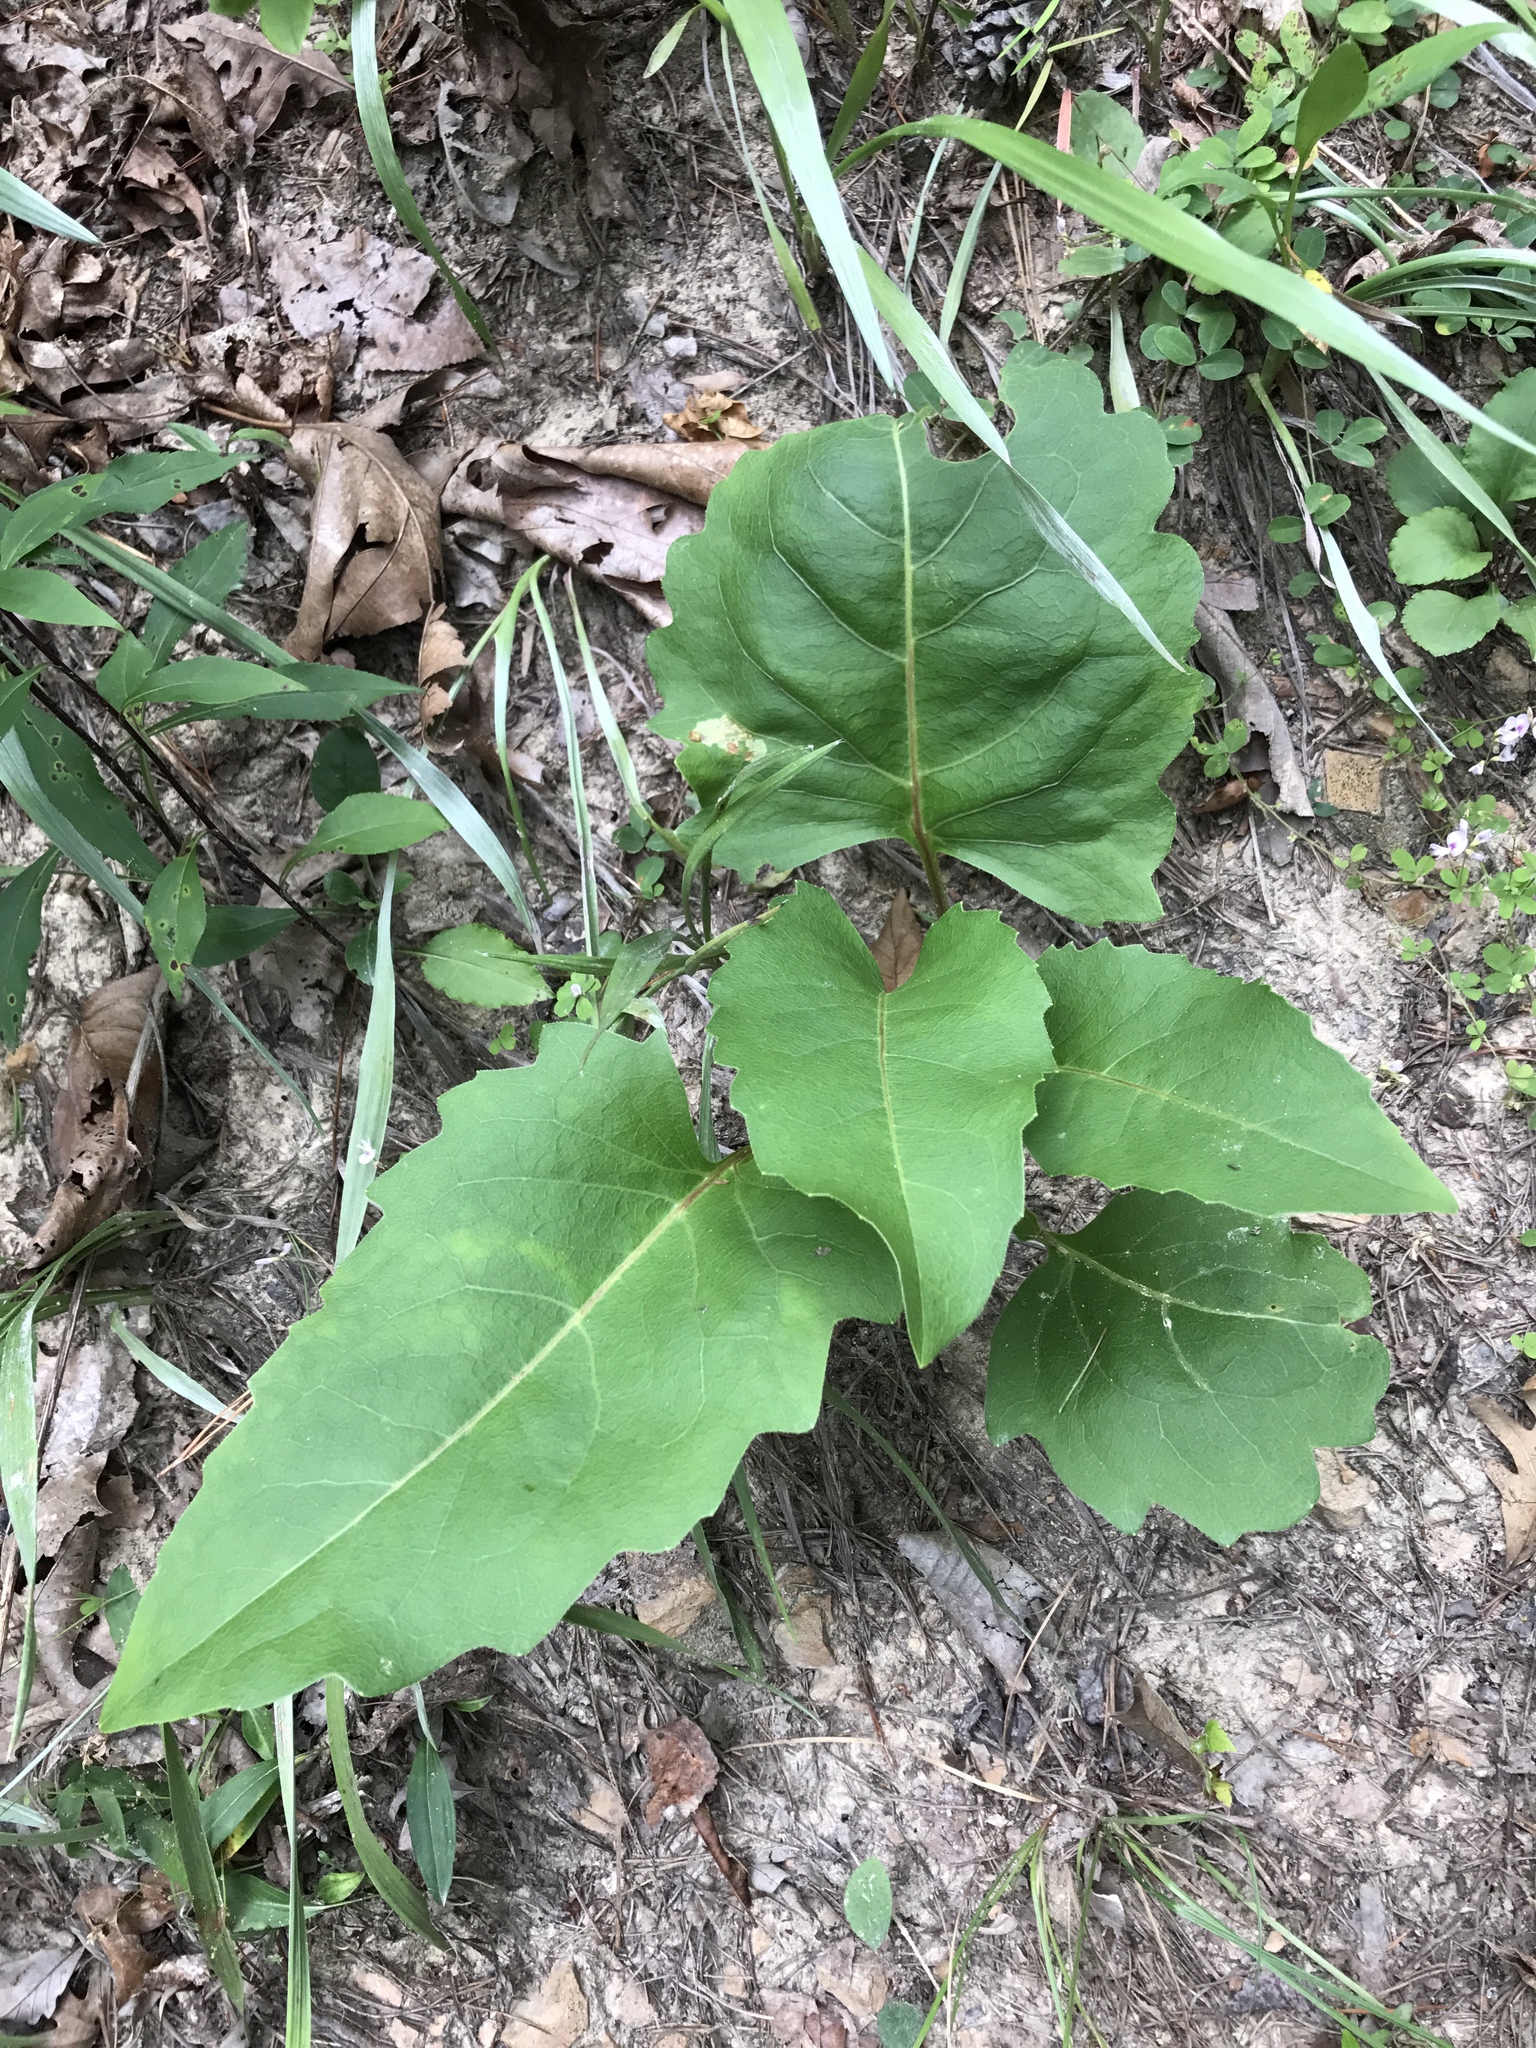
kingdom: Plantae
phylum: Tracheophyta
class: Magnoliopsida
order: Asterales
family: Asteraceae
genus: Silphium
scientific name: Silphium compositum
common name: Lesser basal-leaf rosinweed
